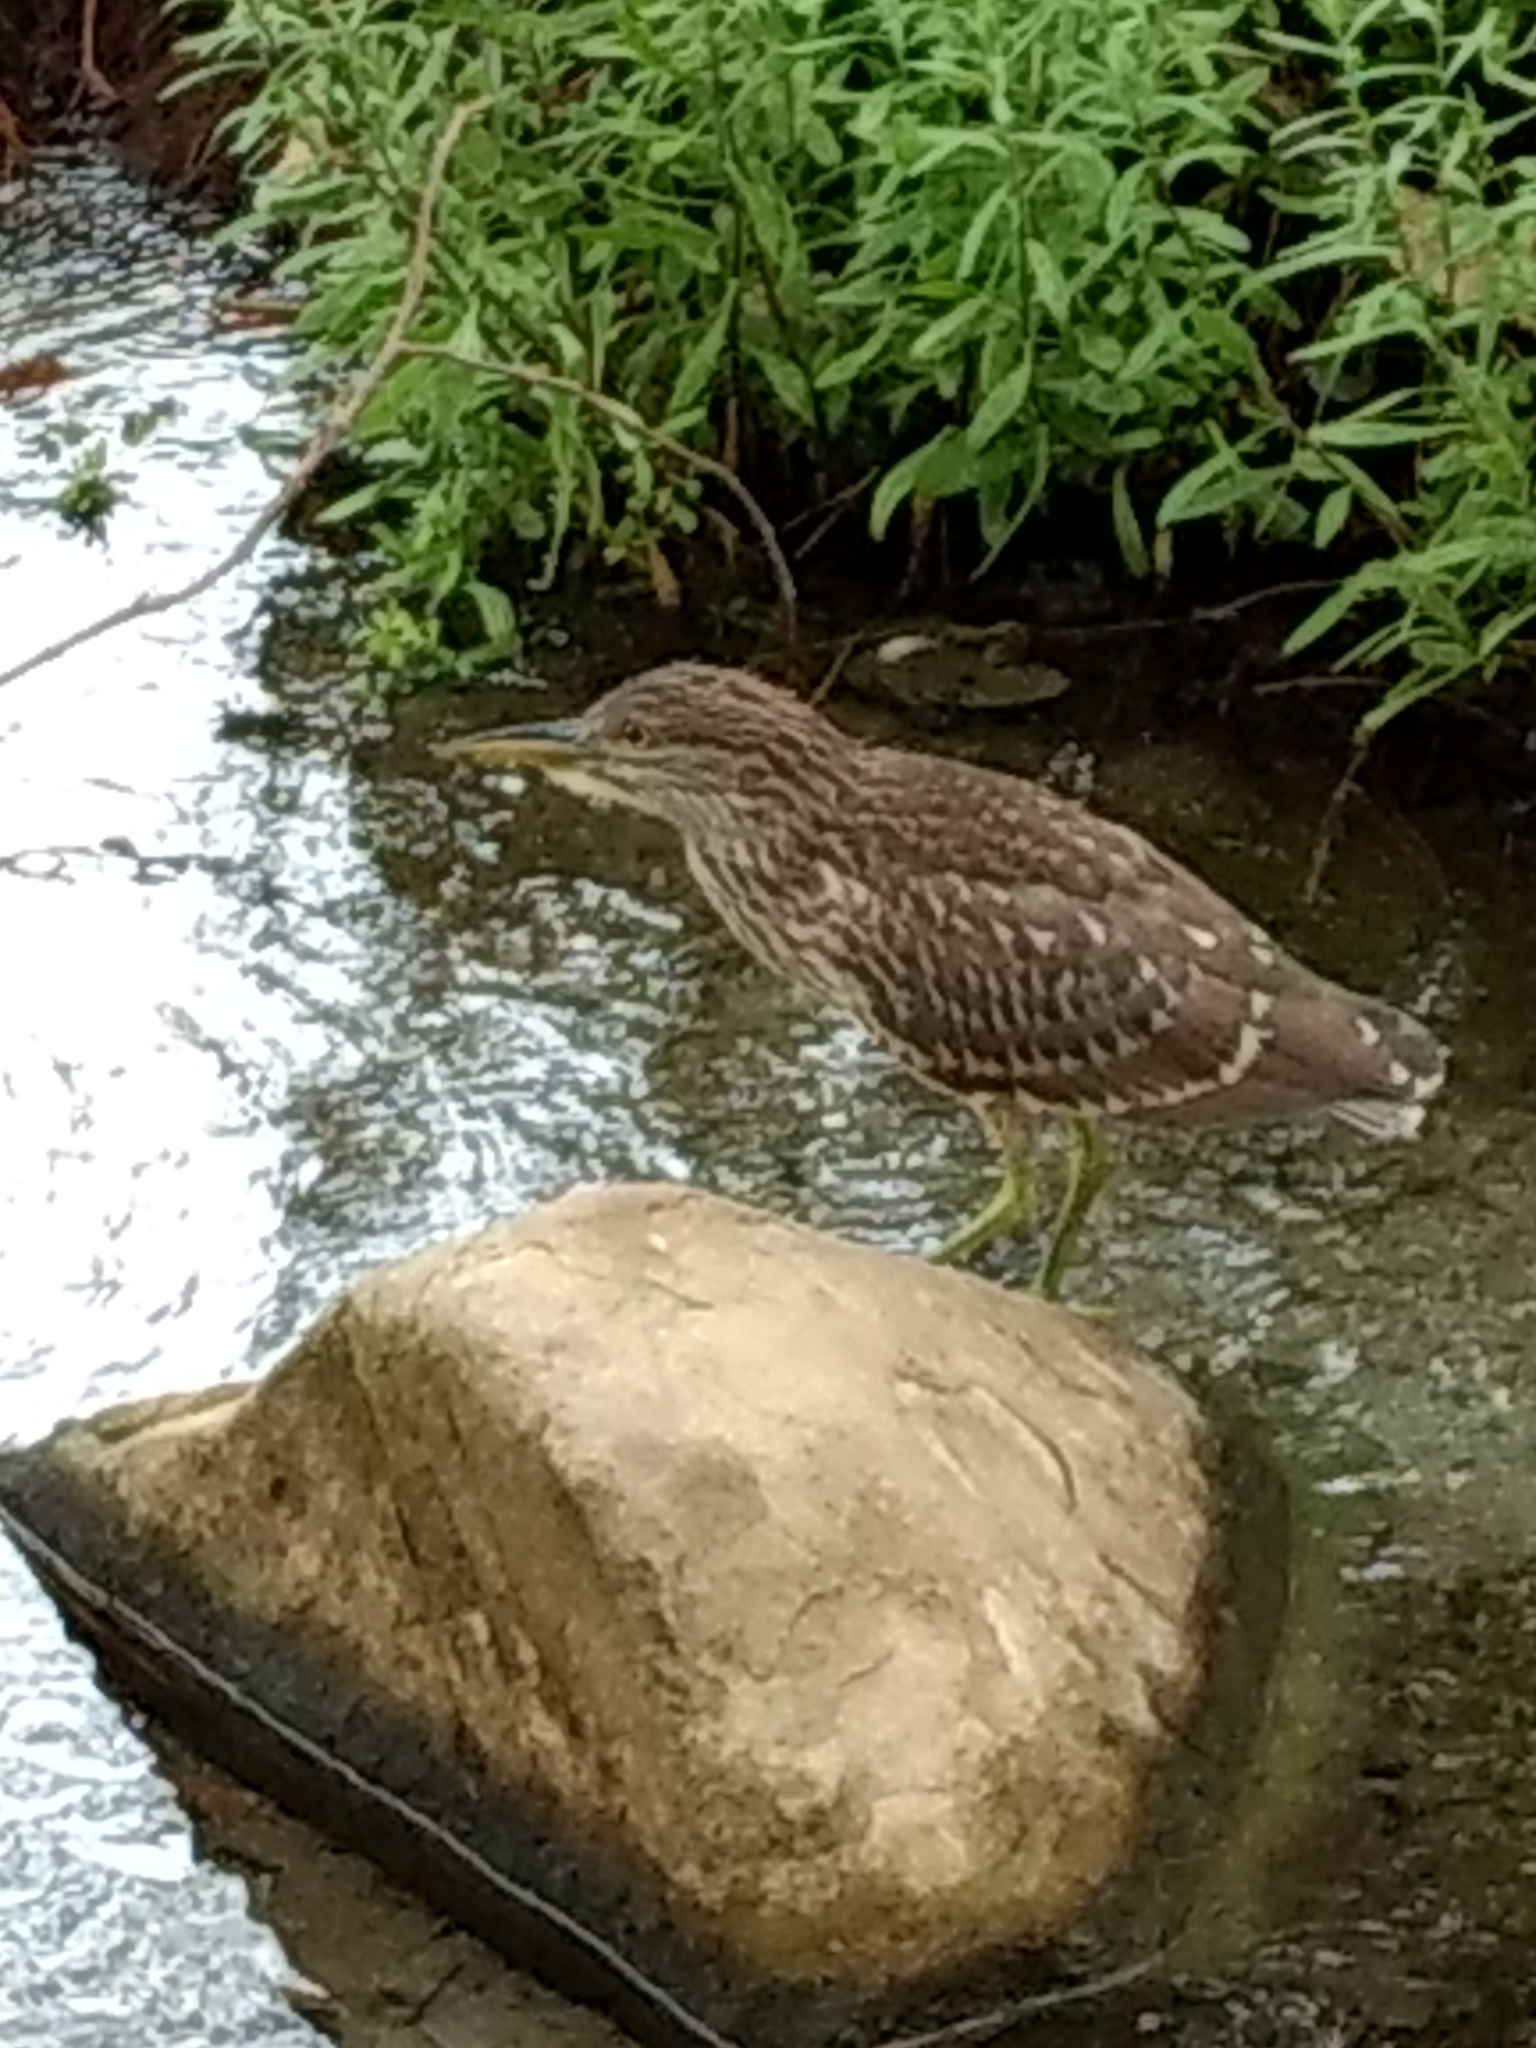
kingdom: Animalia
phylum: Chordata
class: Aves
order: Pelecaniformes
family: Ardeidae
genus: Nycticorax
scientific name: Nycticorax nycticorax
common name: Black-crowned night heron
